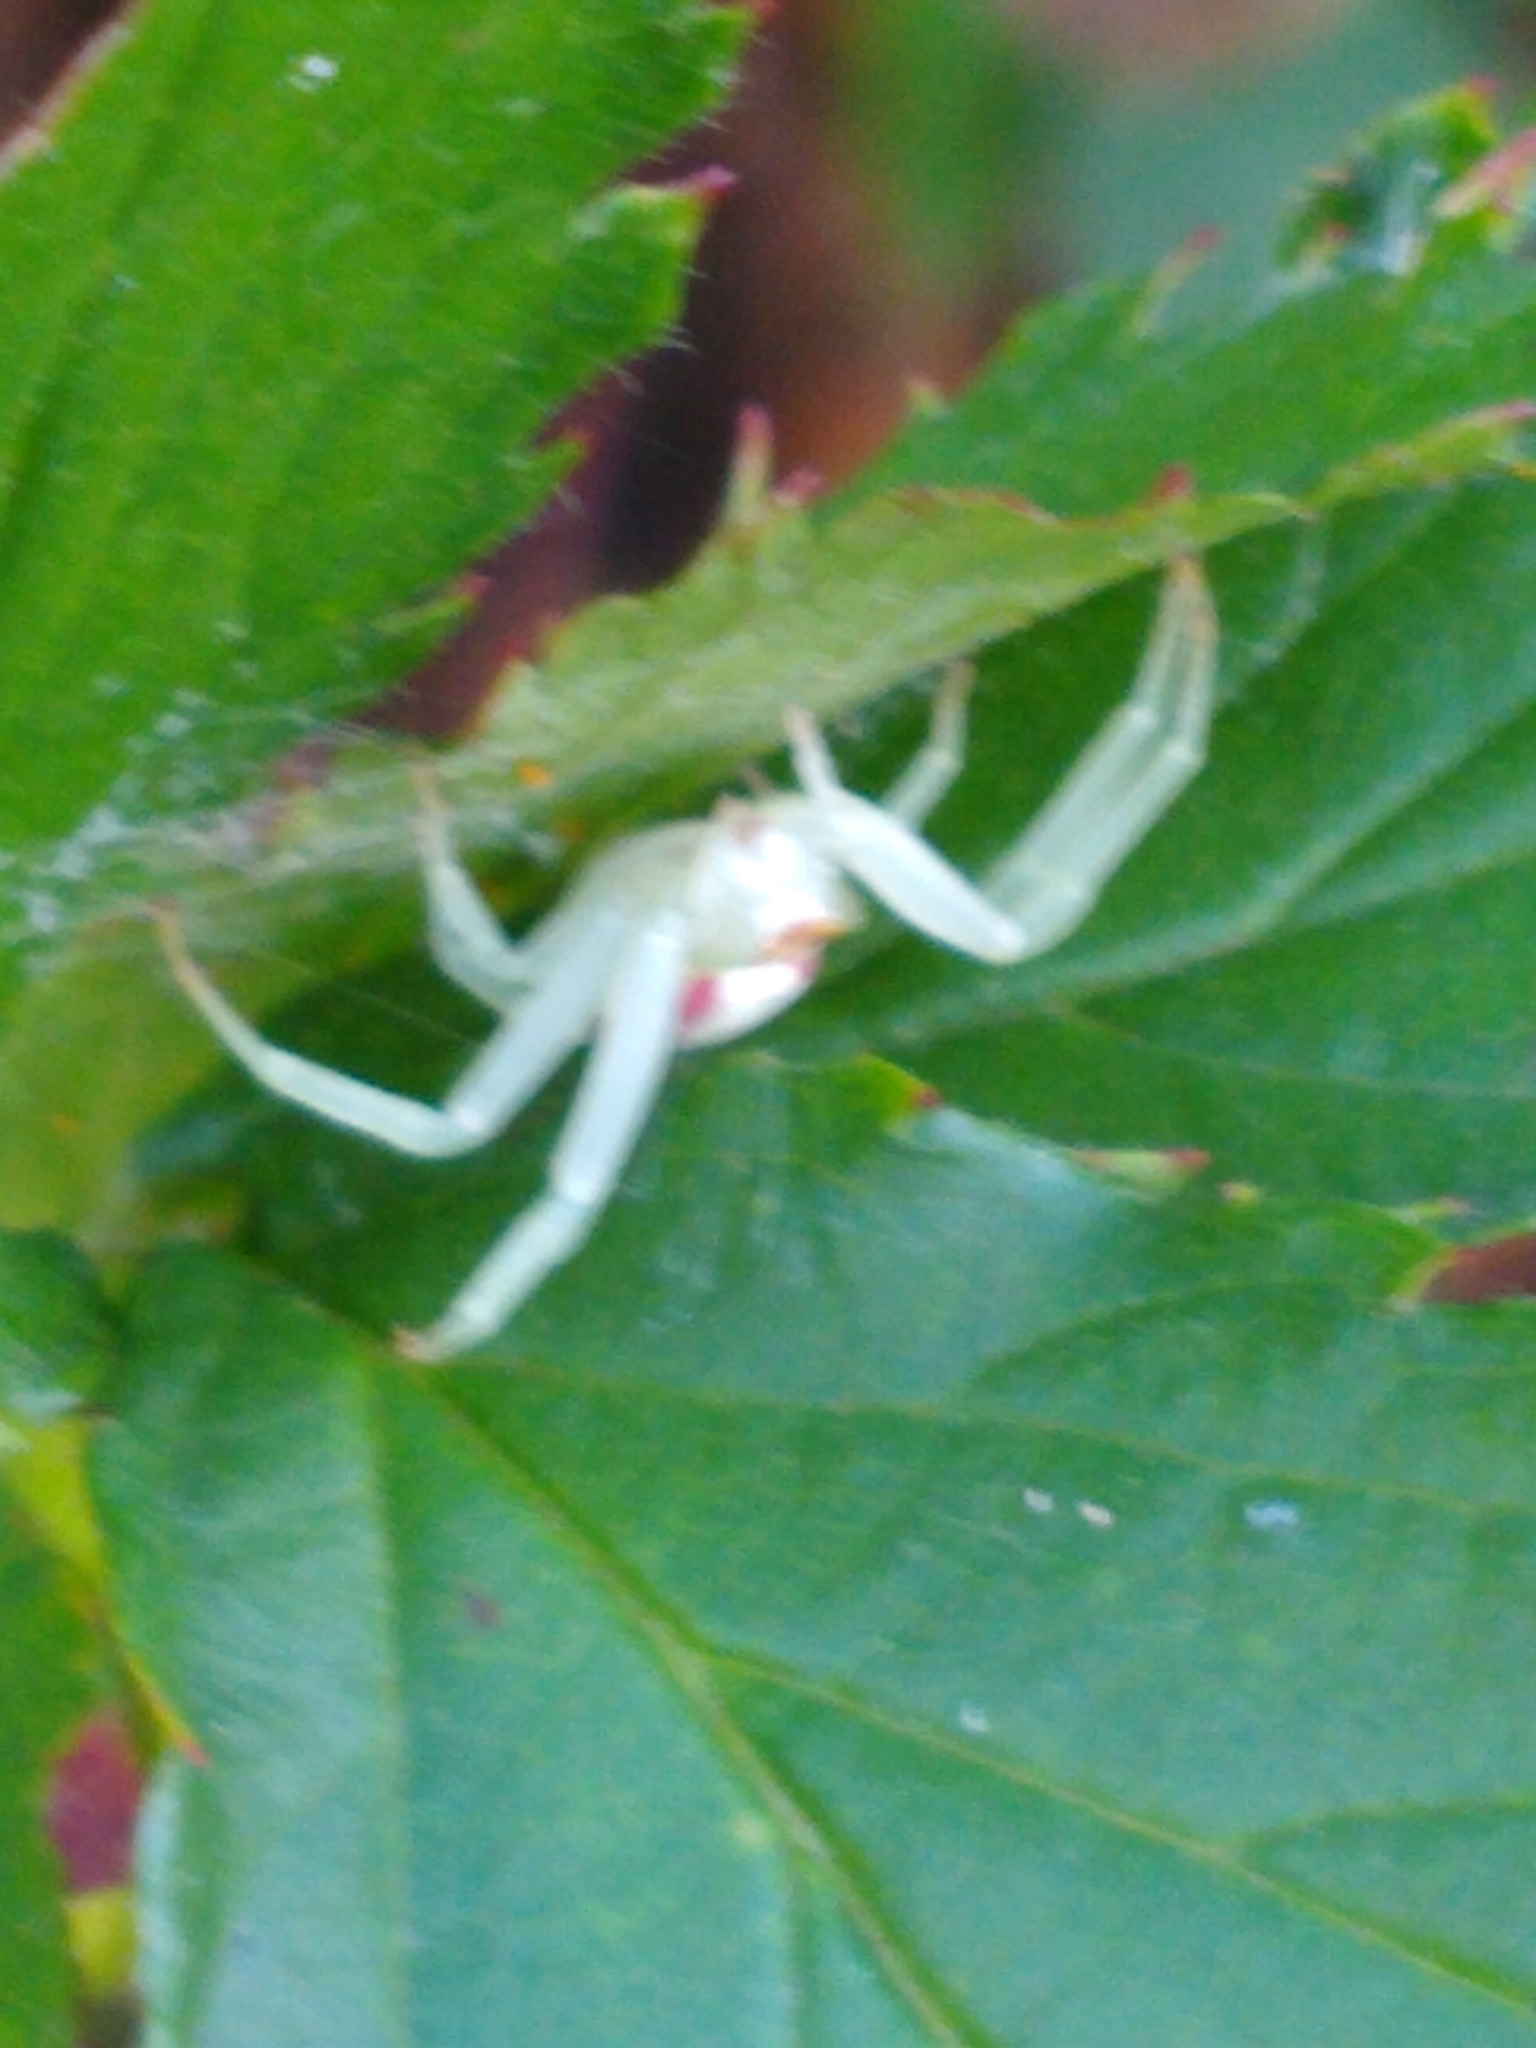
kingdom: Animalia
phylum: Arthropoda
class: Arachnida
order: Araneae
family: Thomisidae
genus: Misumena
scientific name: Misumena vatia
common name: Goldenrod crab spider
